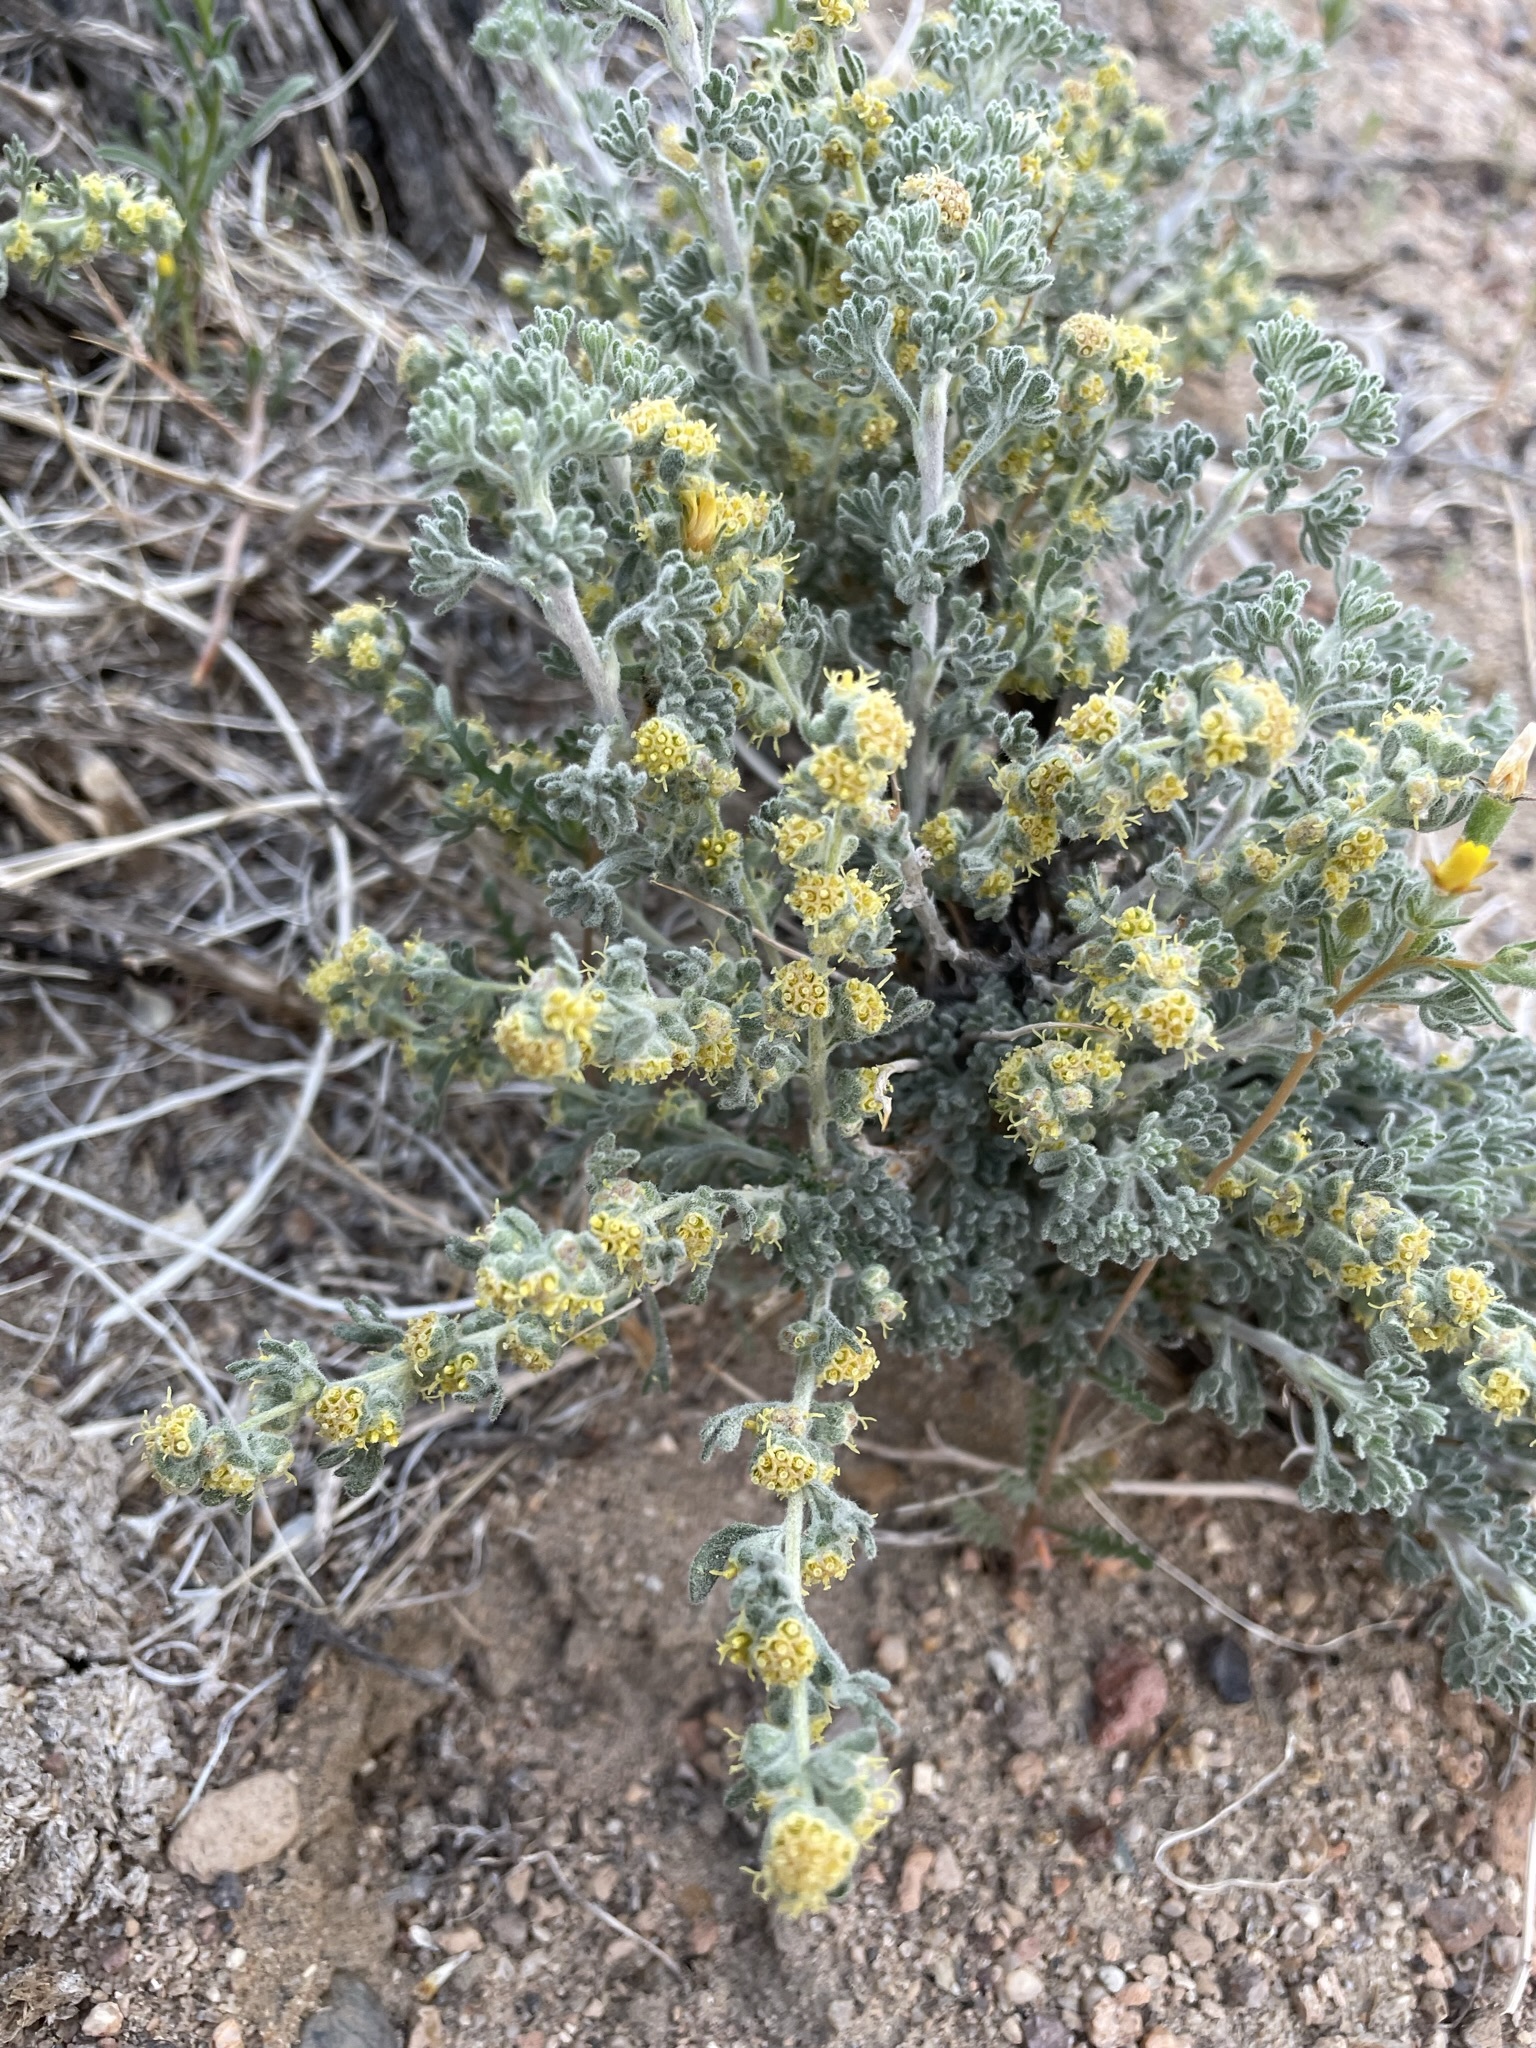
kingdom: Plantae
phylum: Tracheophyta
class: Magnoliopsida
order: Asterales
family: Asteraceae
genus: Artemisia
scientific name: Artemisia spinescens
